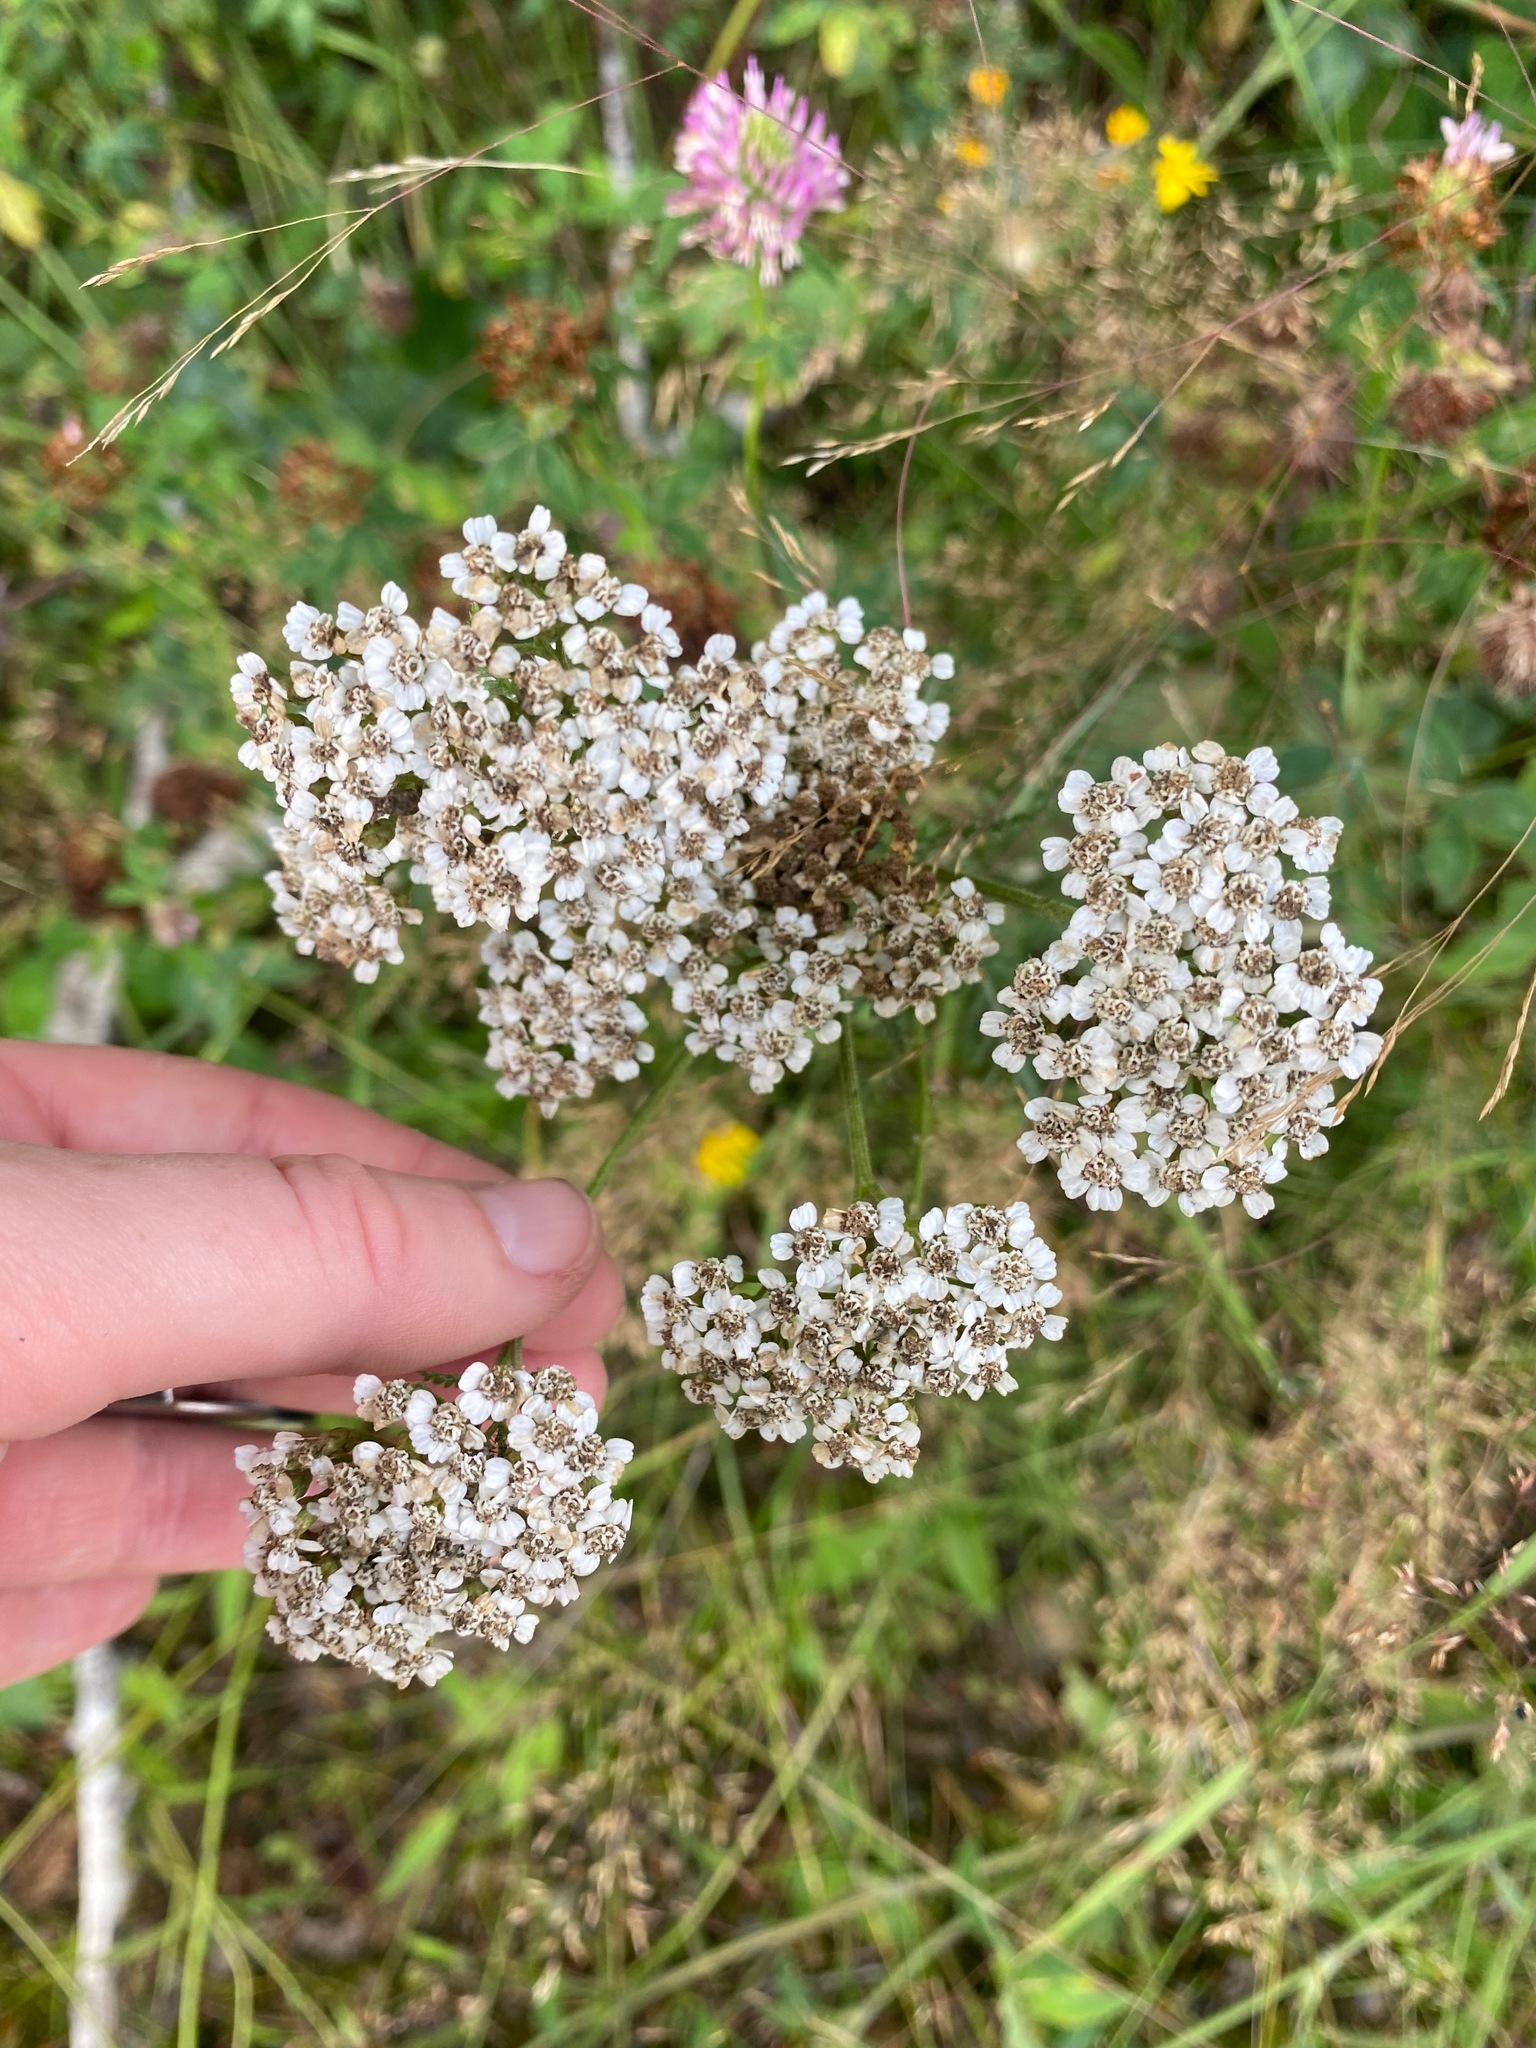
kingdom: Plantae
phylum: Tracheophyta
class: Magnoliopsida
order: Asterales
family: Asteraceae
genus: Achillea
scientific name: Achillea millefolium
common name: Yarrow
